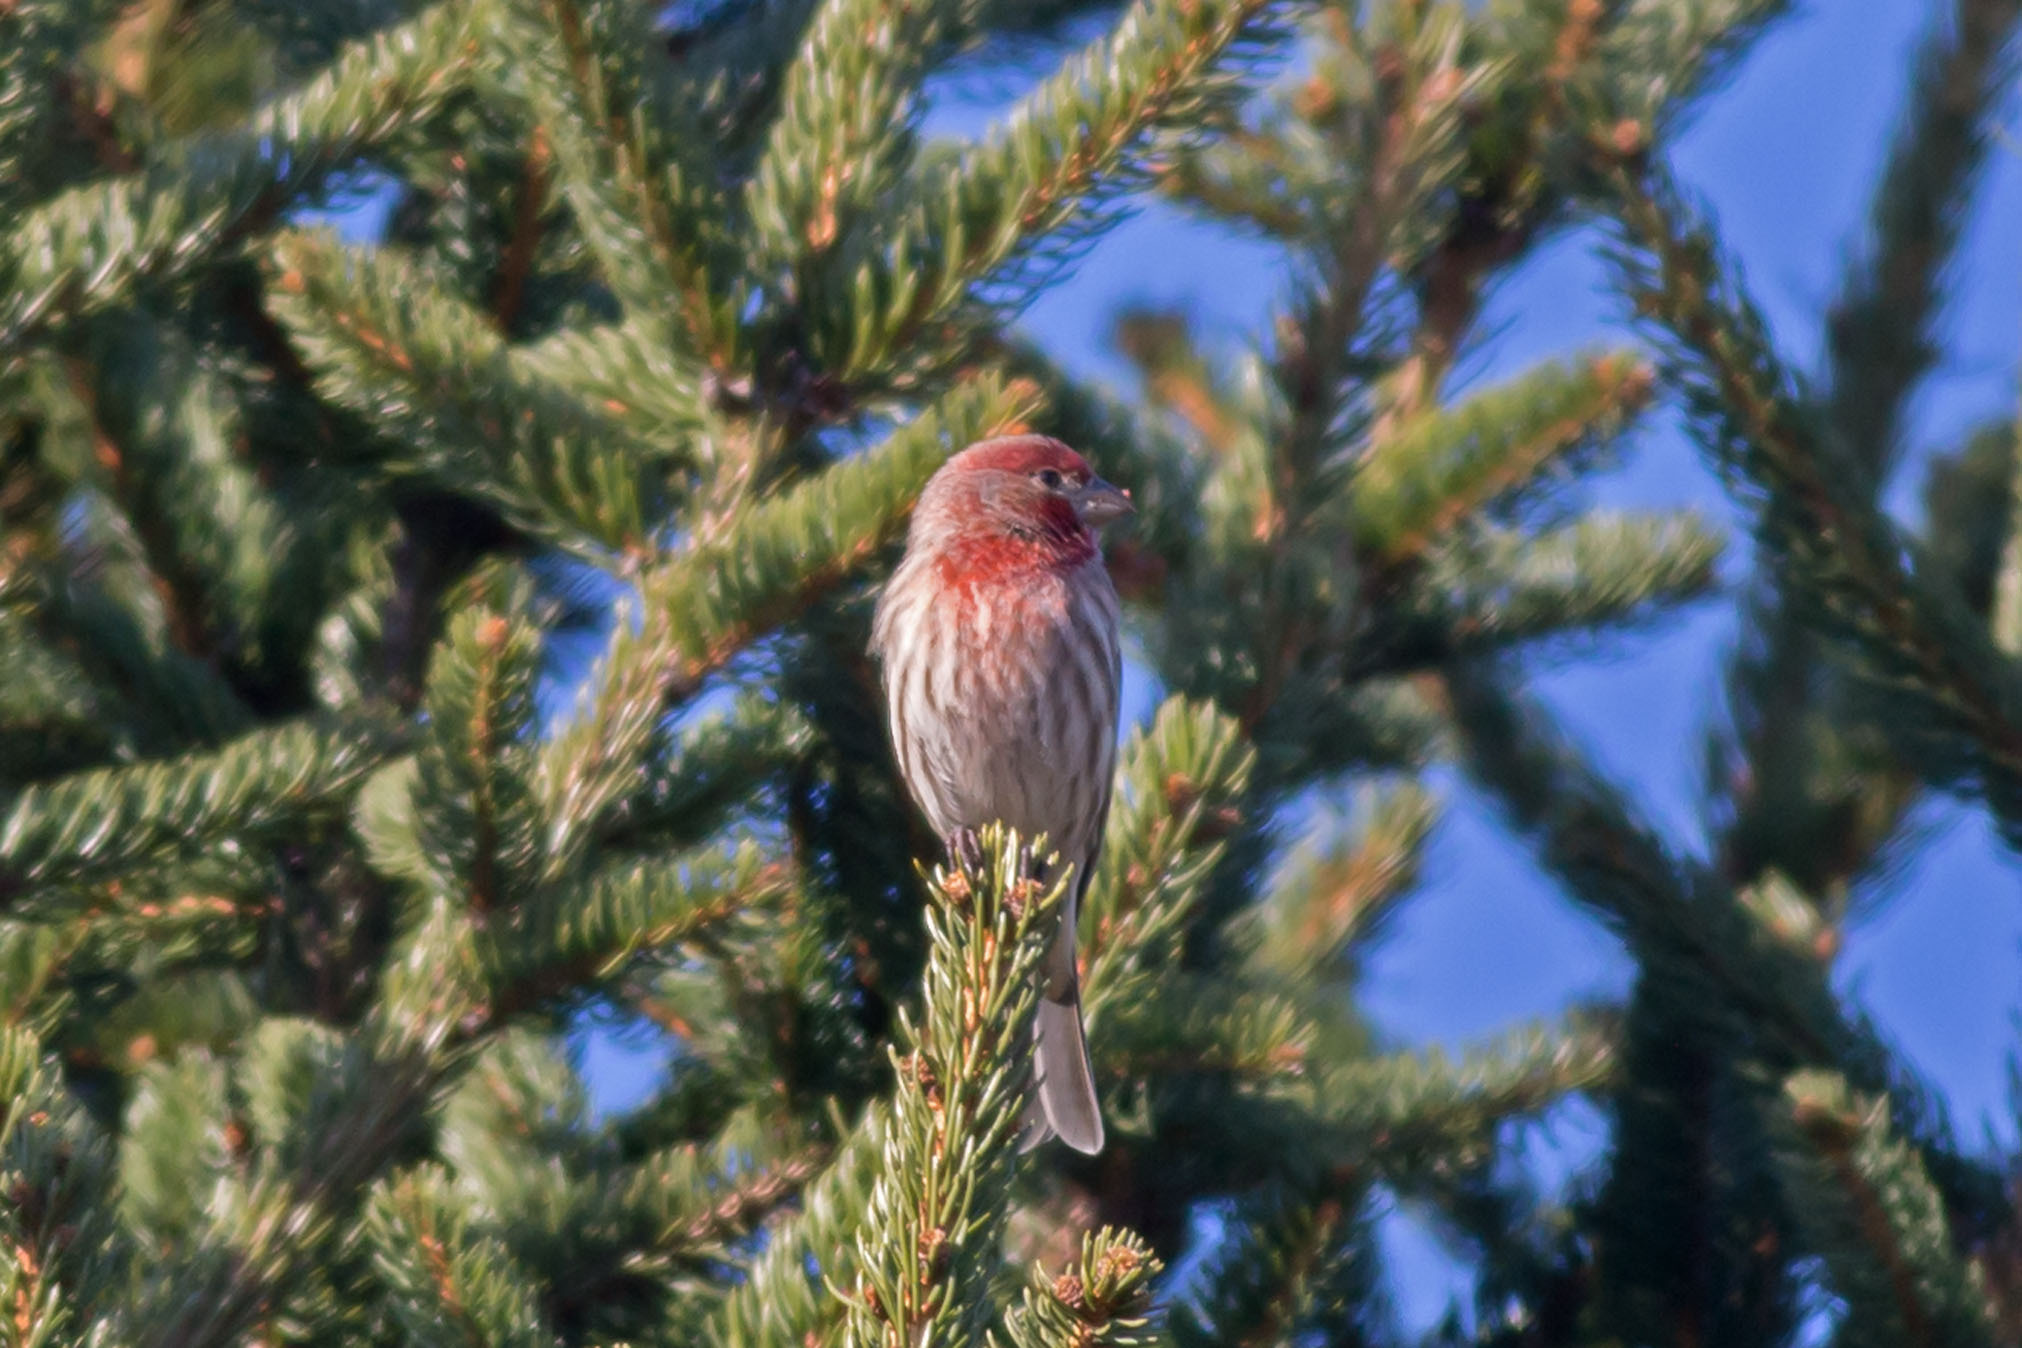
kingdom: Animalia
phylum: Chordata
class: Aves
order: Passeriformes
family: Fringillidae
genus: Haemorhous
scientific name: Haemorhous mexicanus
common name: House finch
